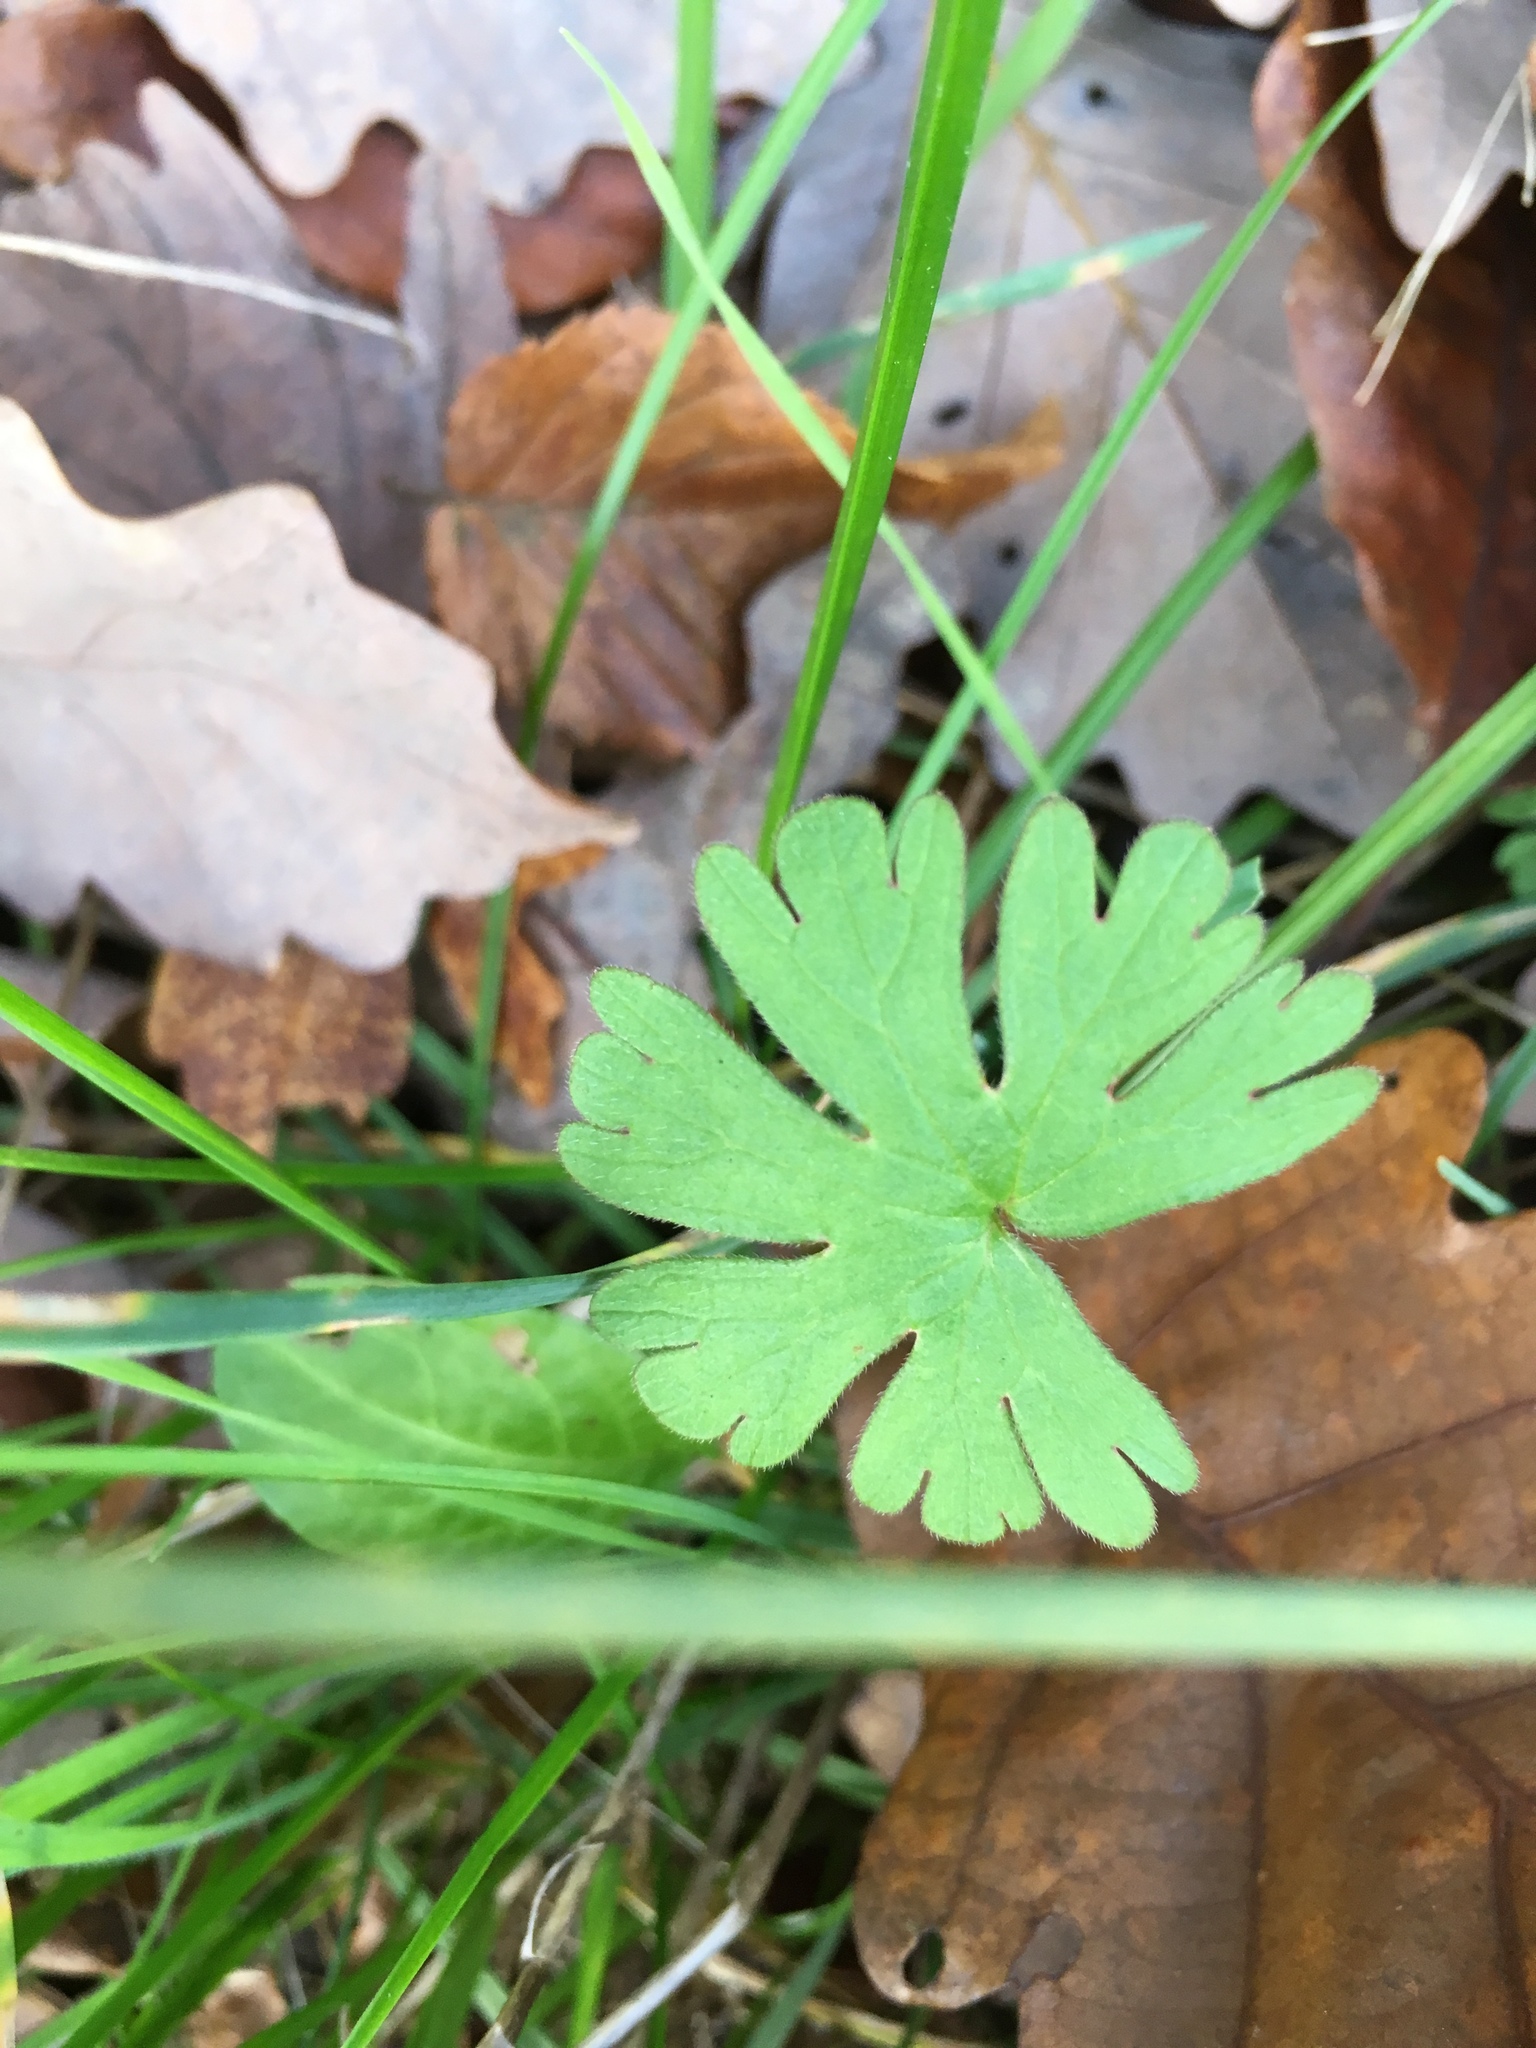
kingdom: Plantae
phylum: Tracheophyta
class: Magnoliopsida
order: Geraniales
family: Geraniaceae
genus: Geranium
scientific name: Geranium molle
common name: Dove's-foot crane's-bill
